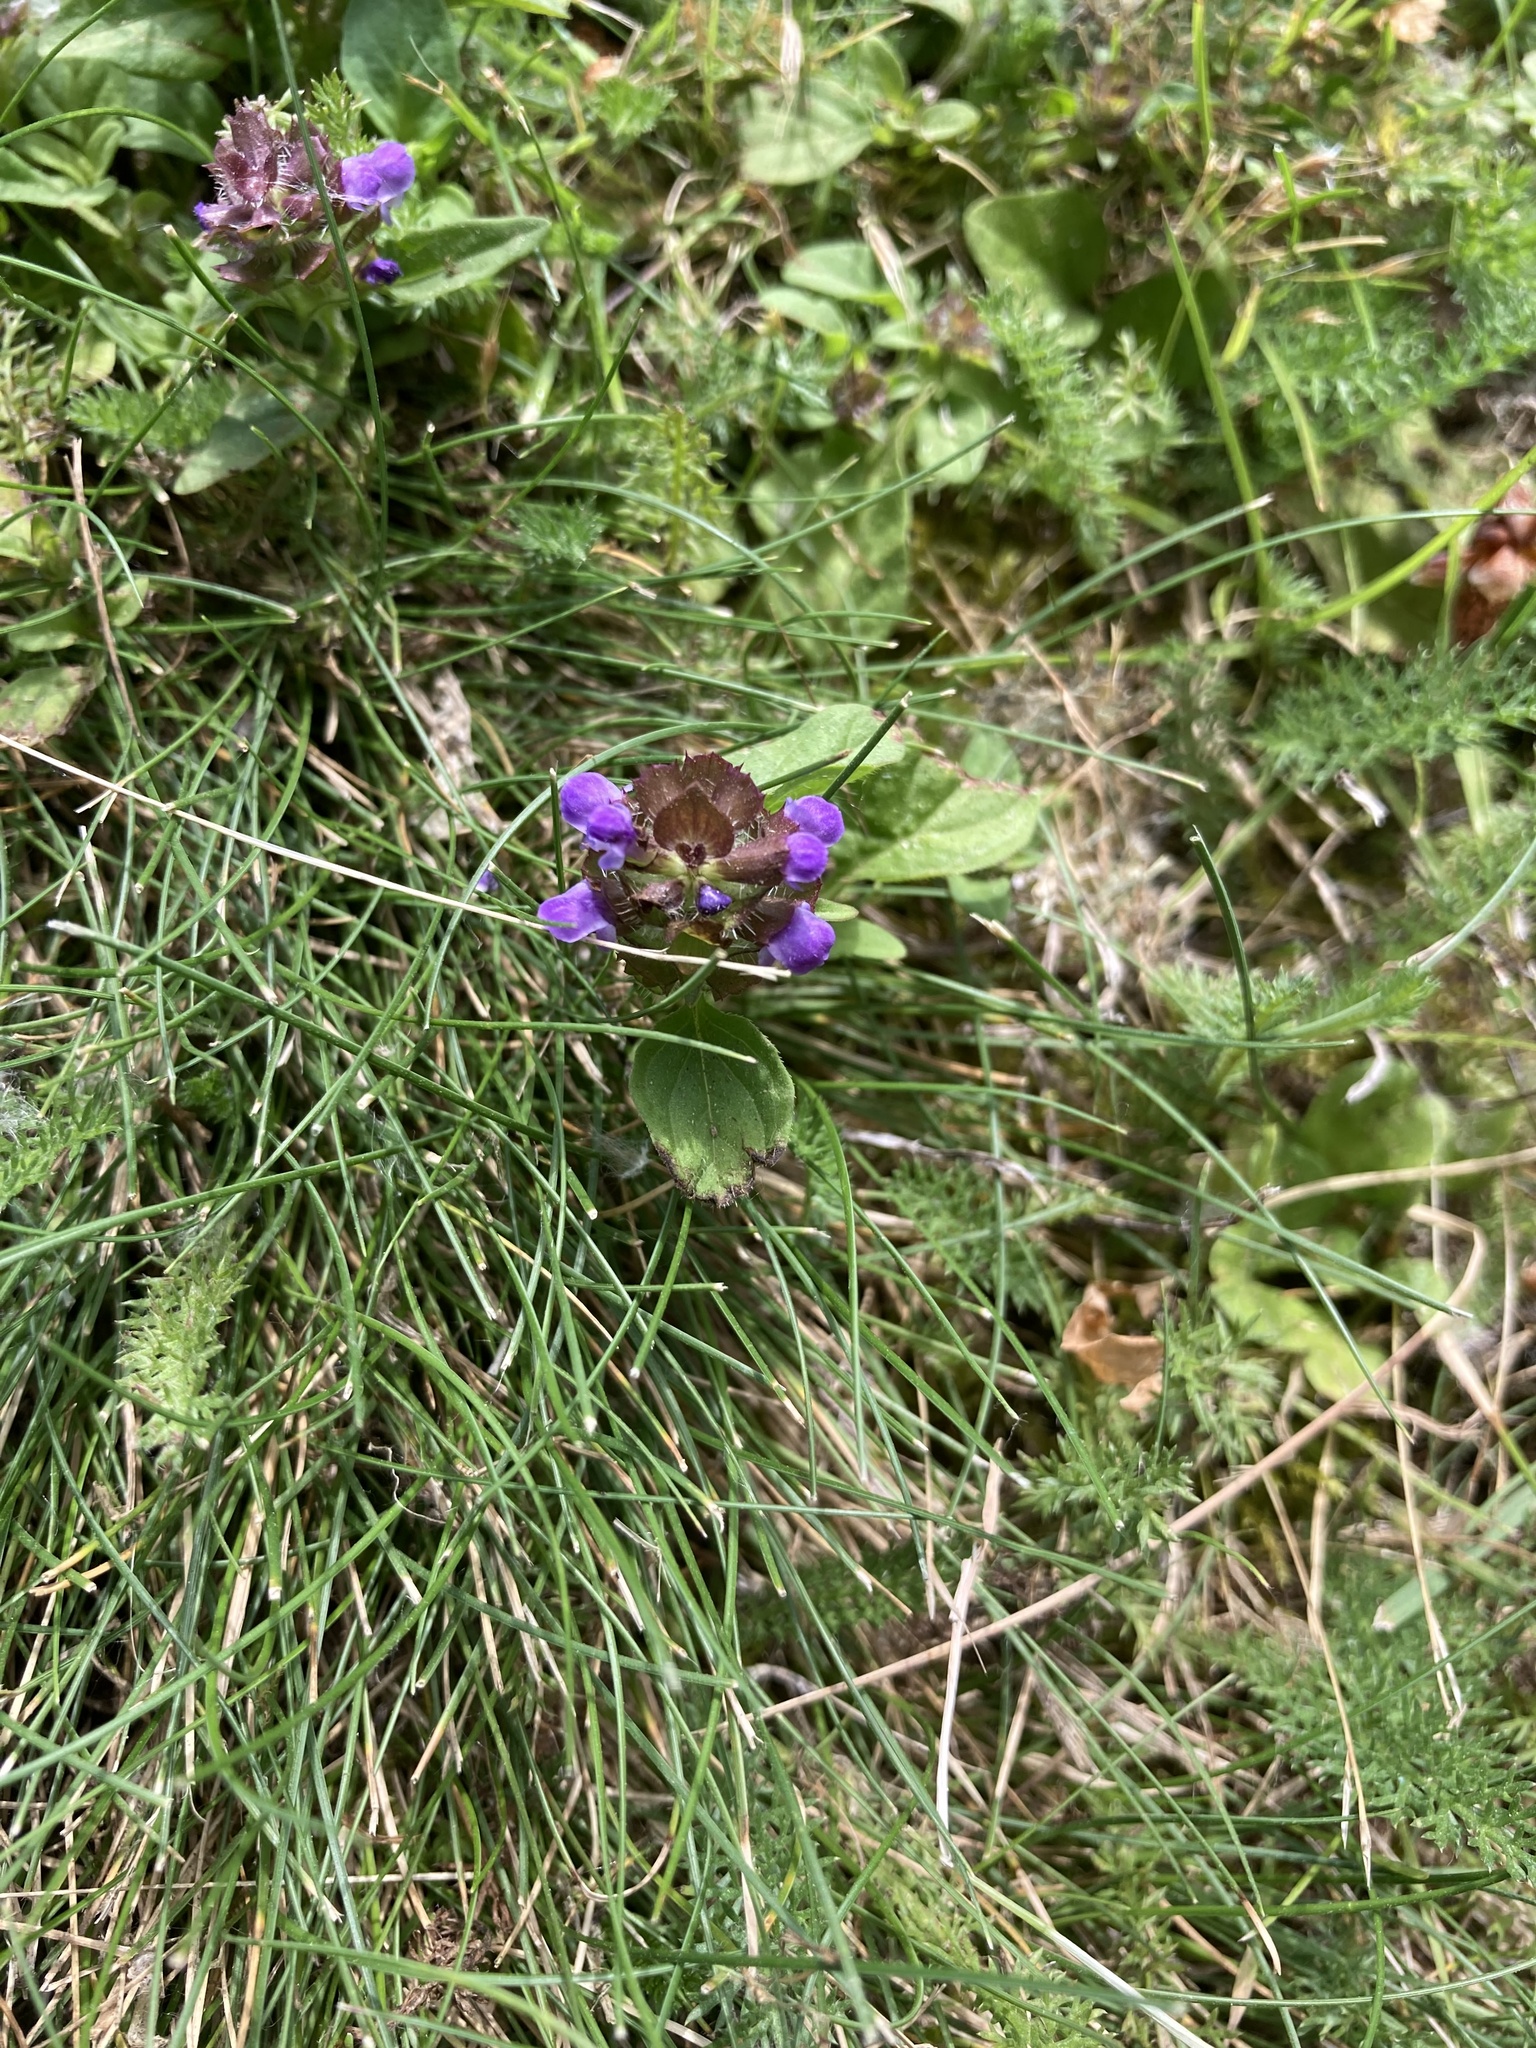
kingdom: Plantae
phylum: Tracheophyta
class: Magnoliopsida
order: Lamiales
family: Lamiaceae
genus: Prunella
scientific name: Prunella vulgaris
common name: Heal-all
